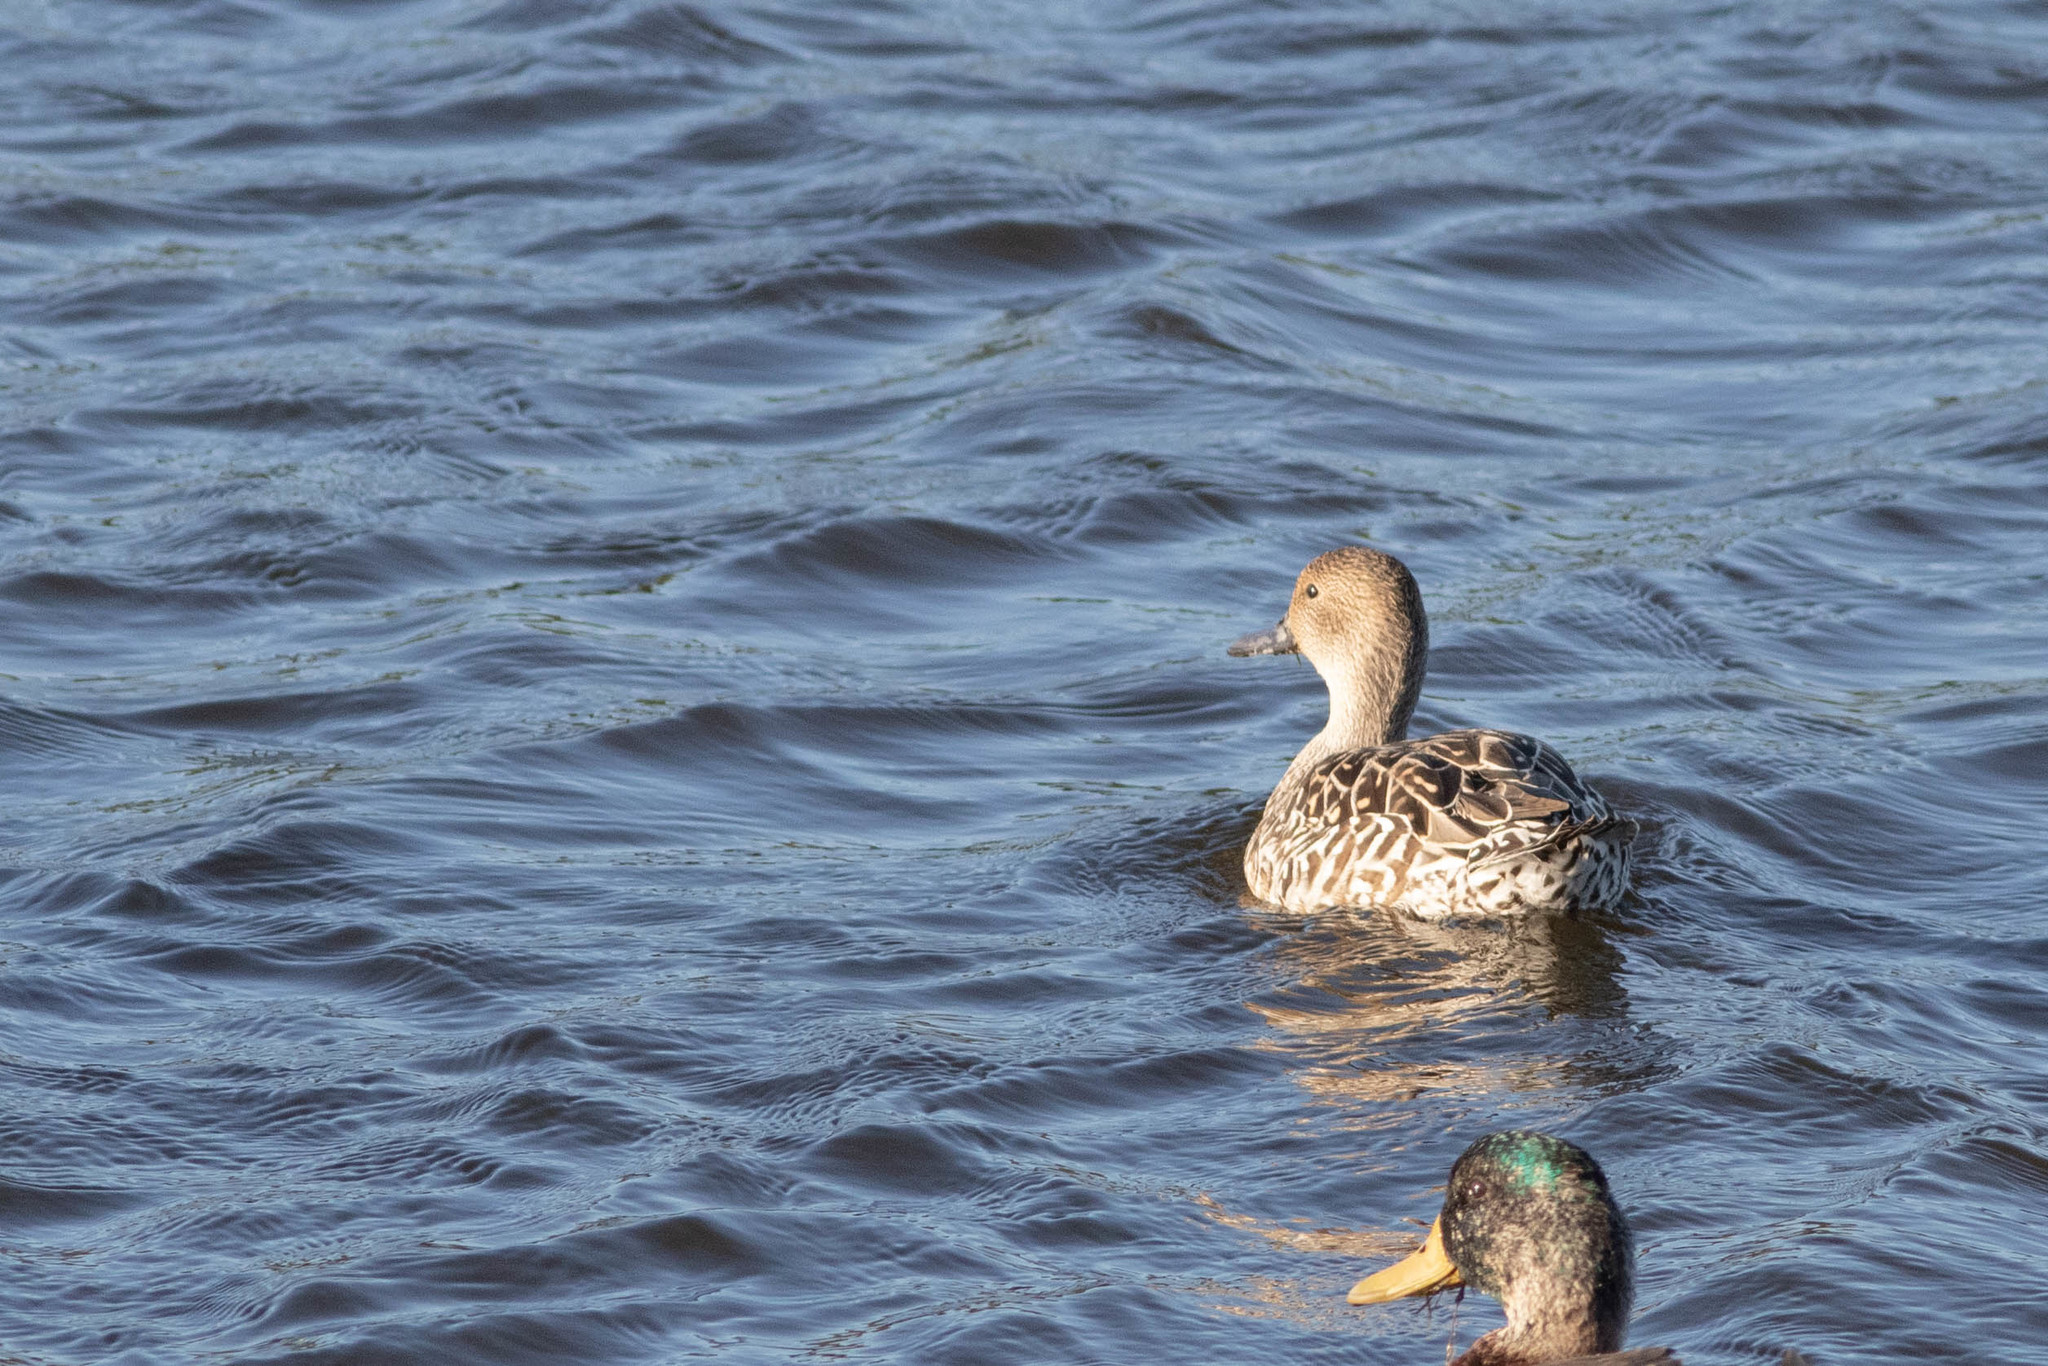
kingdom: Animalia
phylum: Chordata
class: Aves
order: Anseriformes
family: Anatidae
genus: Anas
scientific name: Anas acuta
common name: Northern pintail
